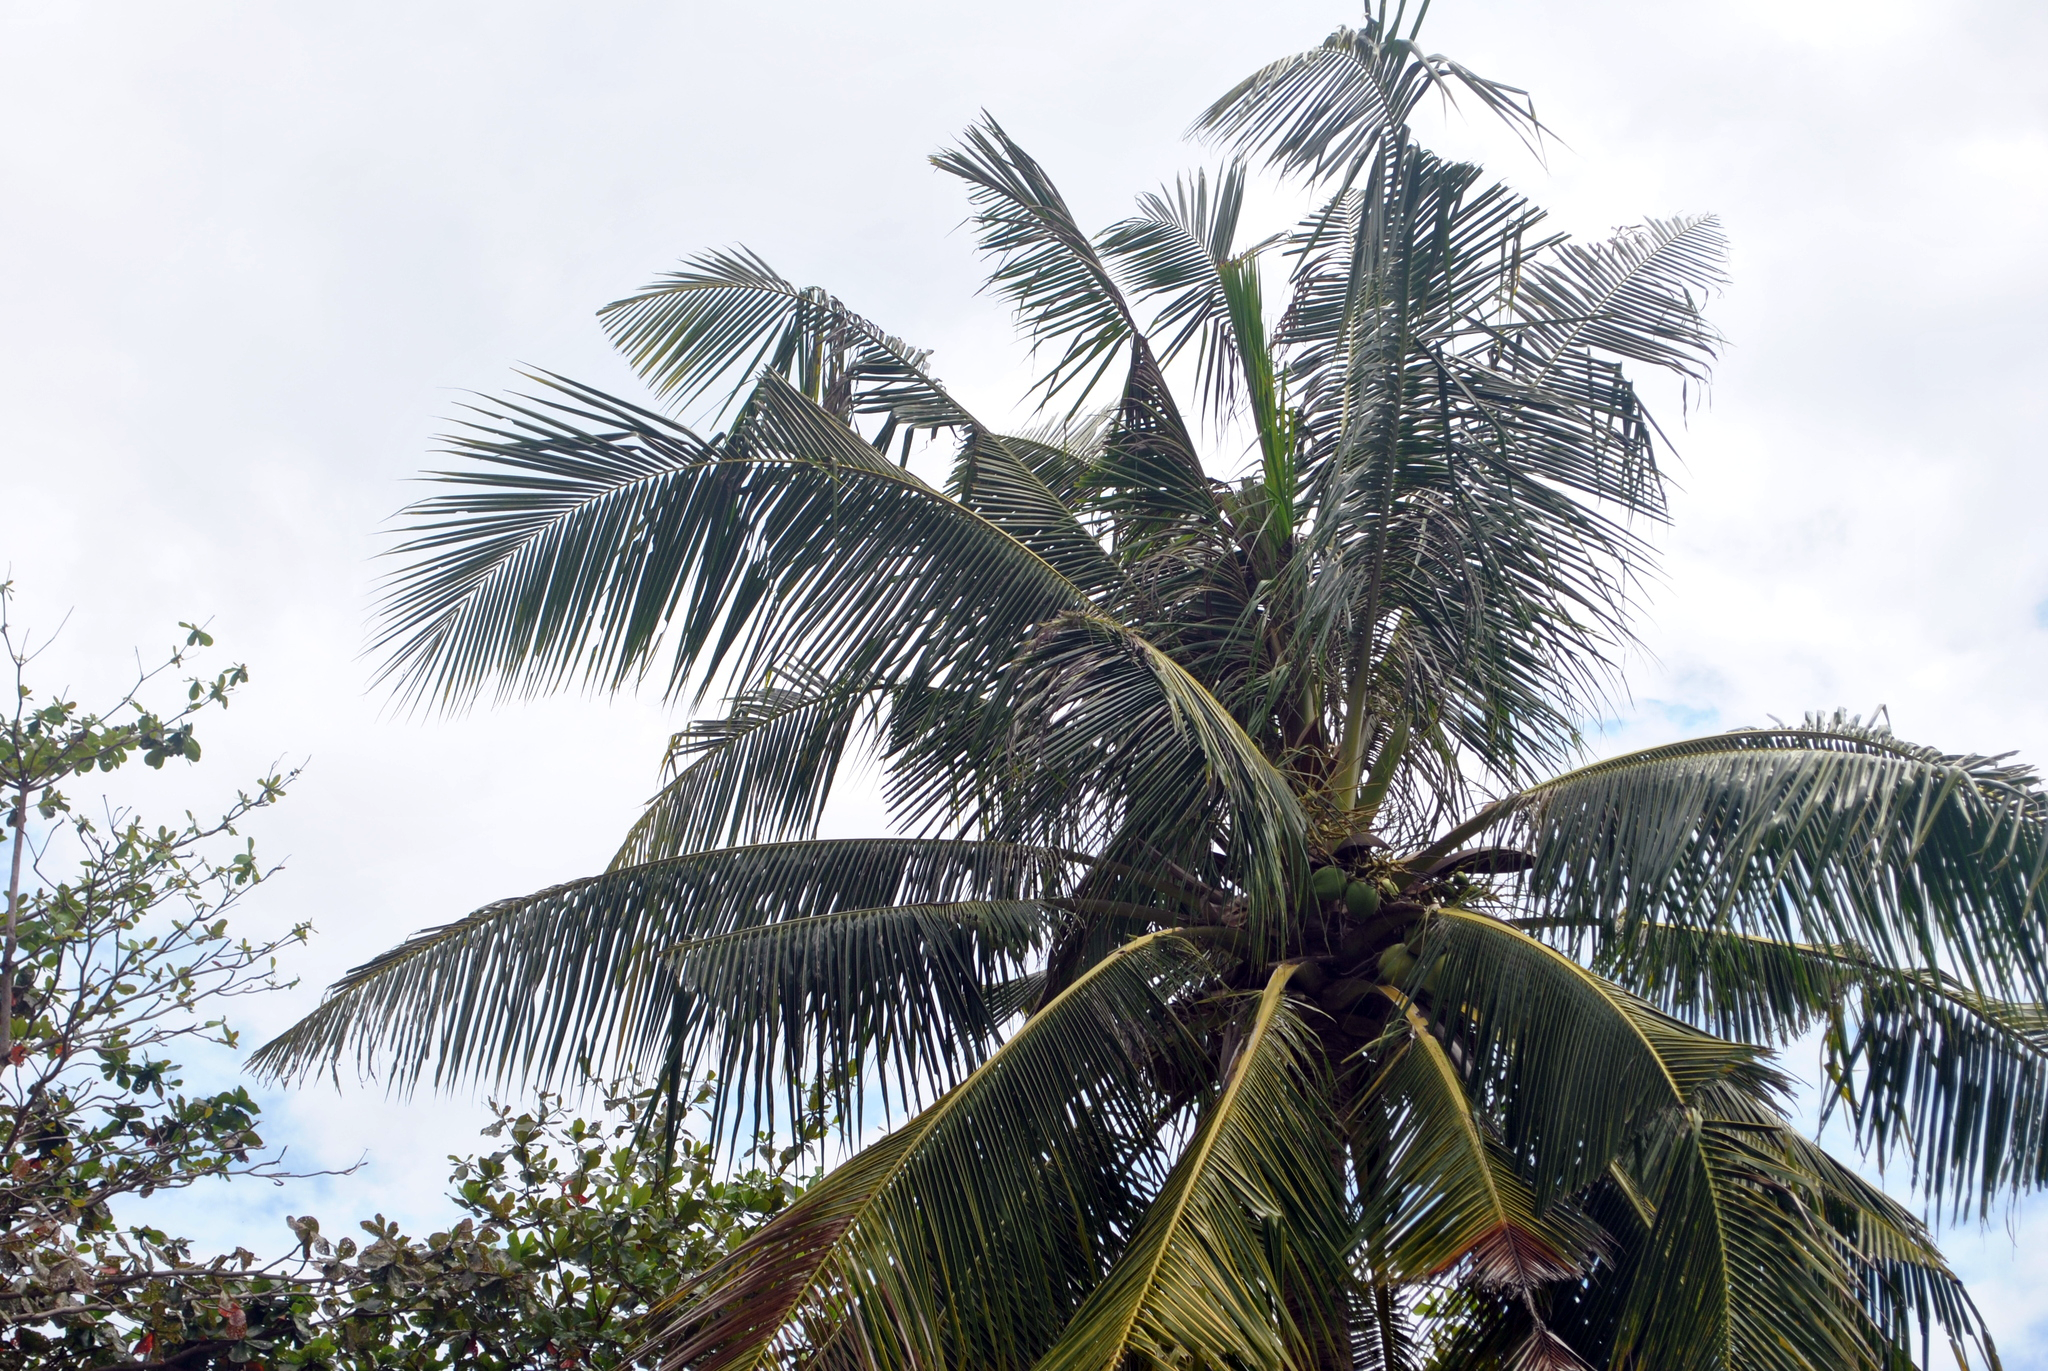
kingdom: Plantae
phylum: Tracheophyta
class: Liliopsida
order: Arecales
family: Arecaceae
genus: Cocos
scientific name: Cocos nucifera
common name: Coconut palm
